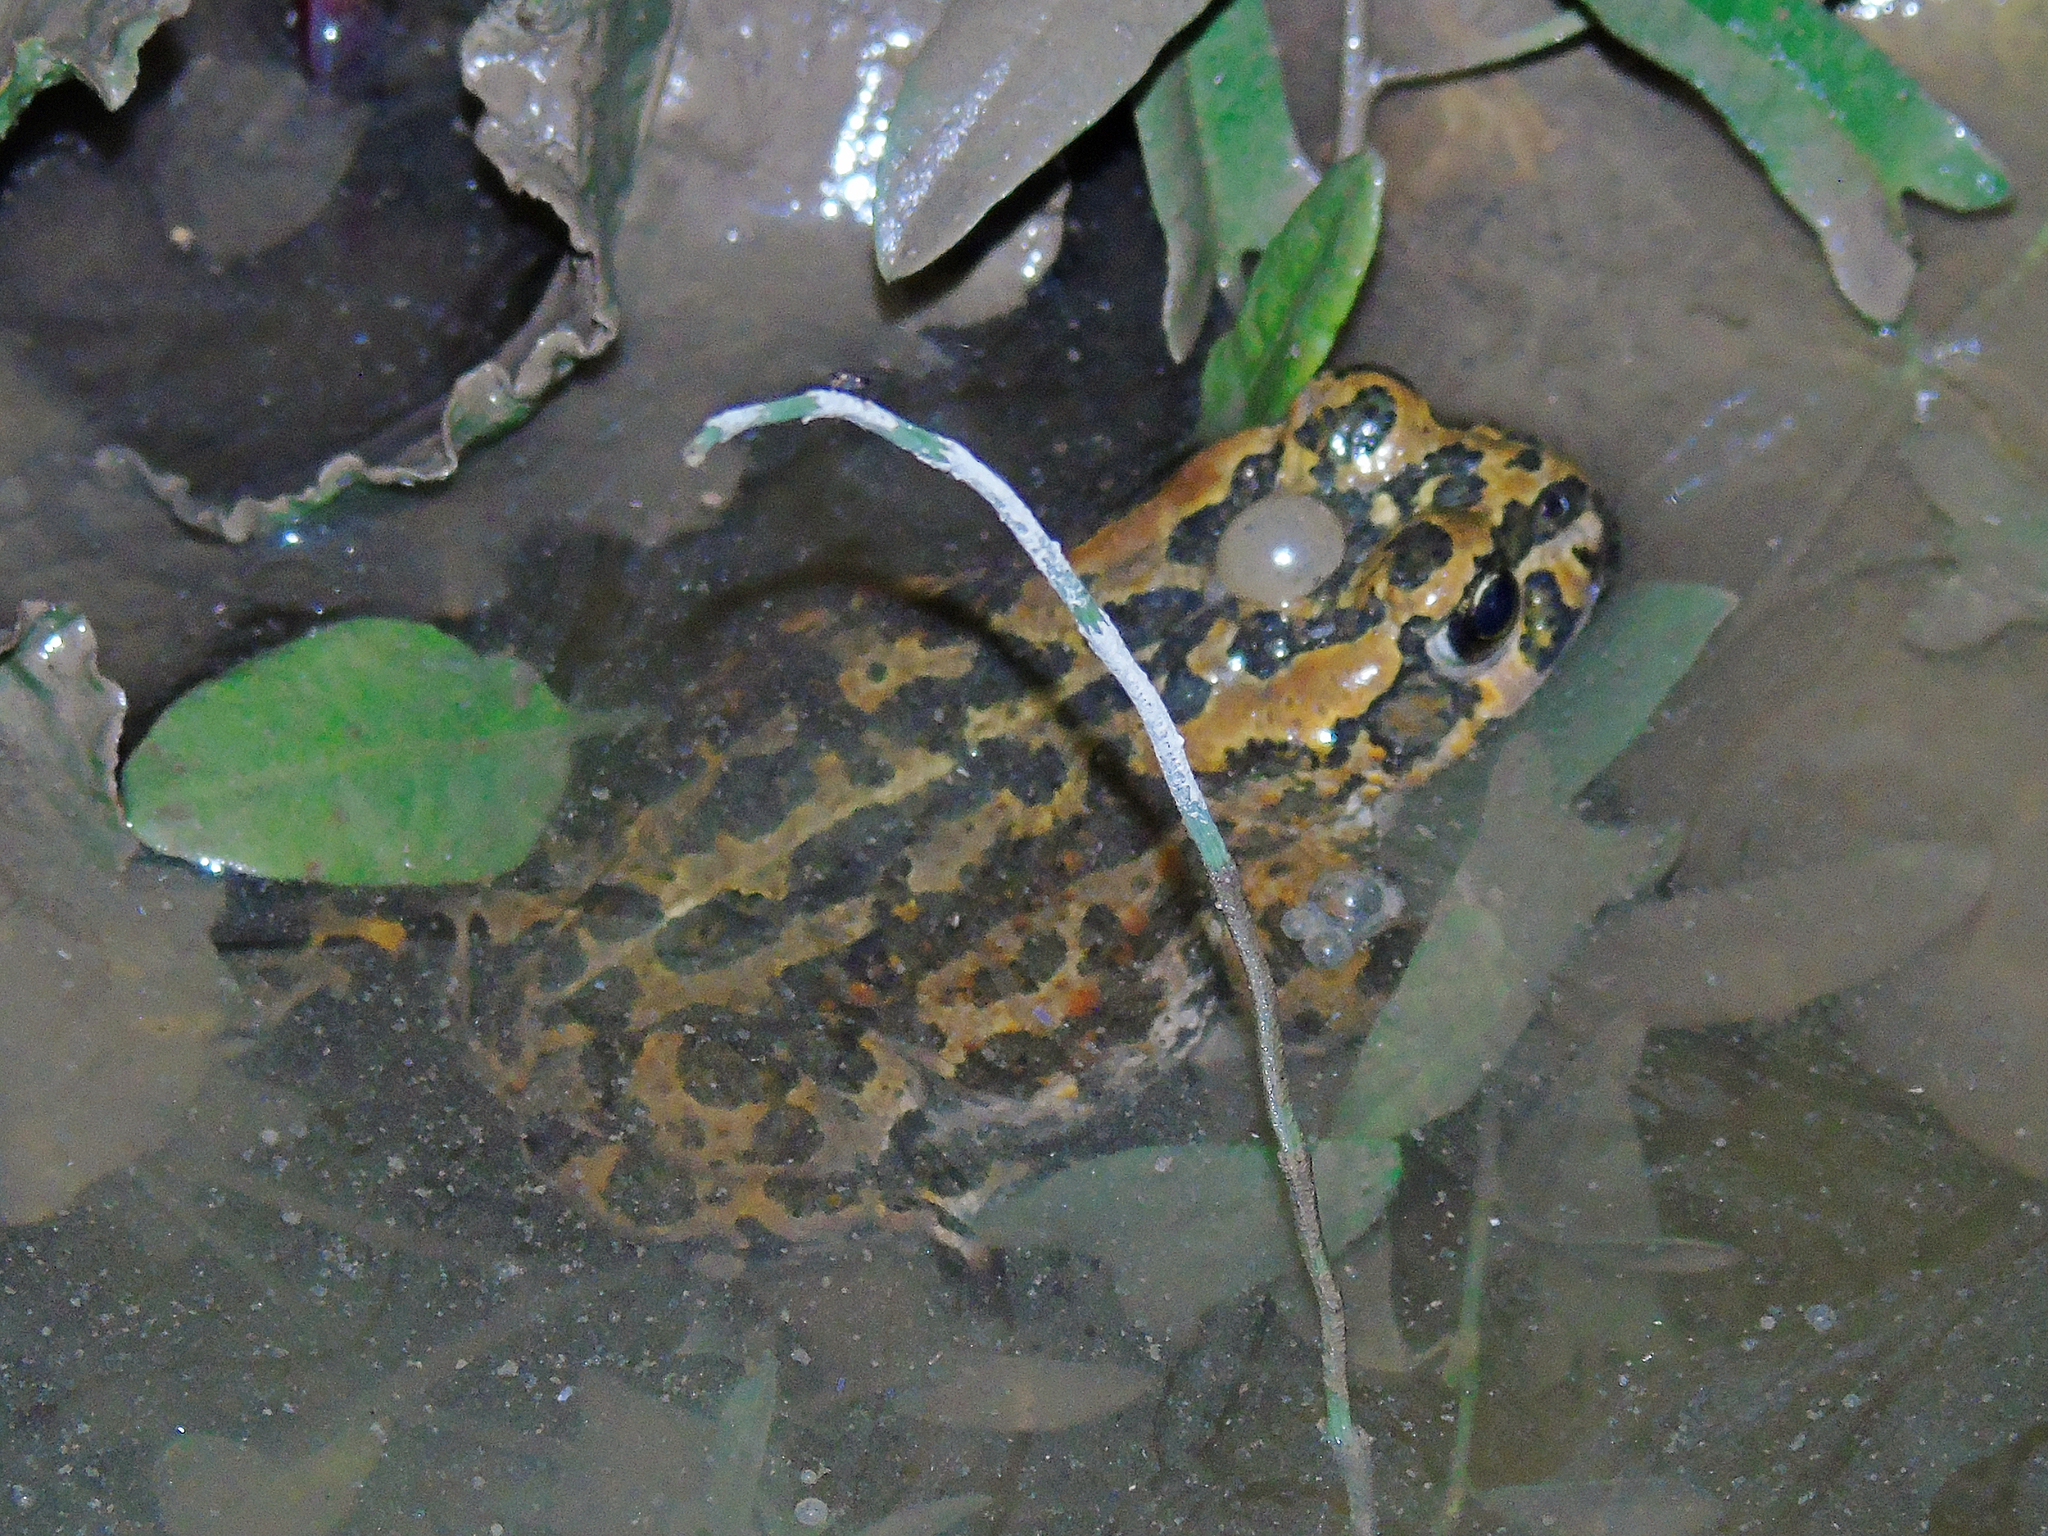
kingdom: Animalia
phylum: Chordata
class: Amphibia
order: Anura
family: Bufonidae
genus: Bufotes
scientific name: Bufotes latastii
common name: Ladakh toad
